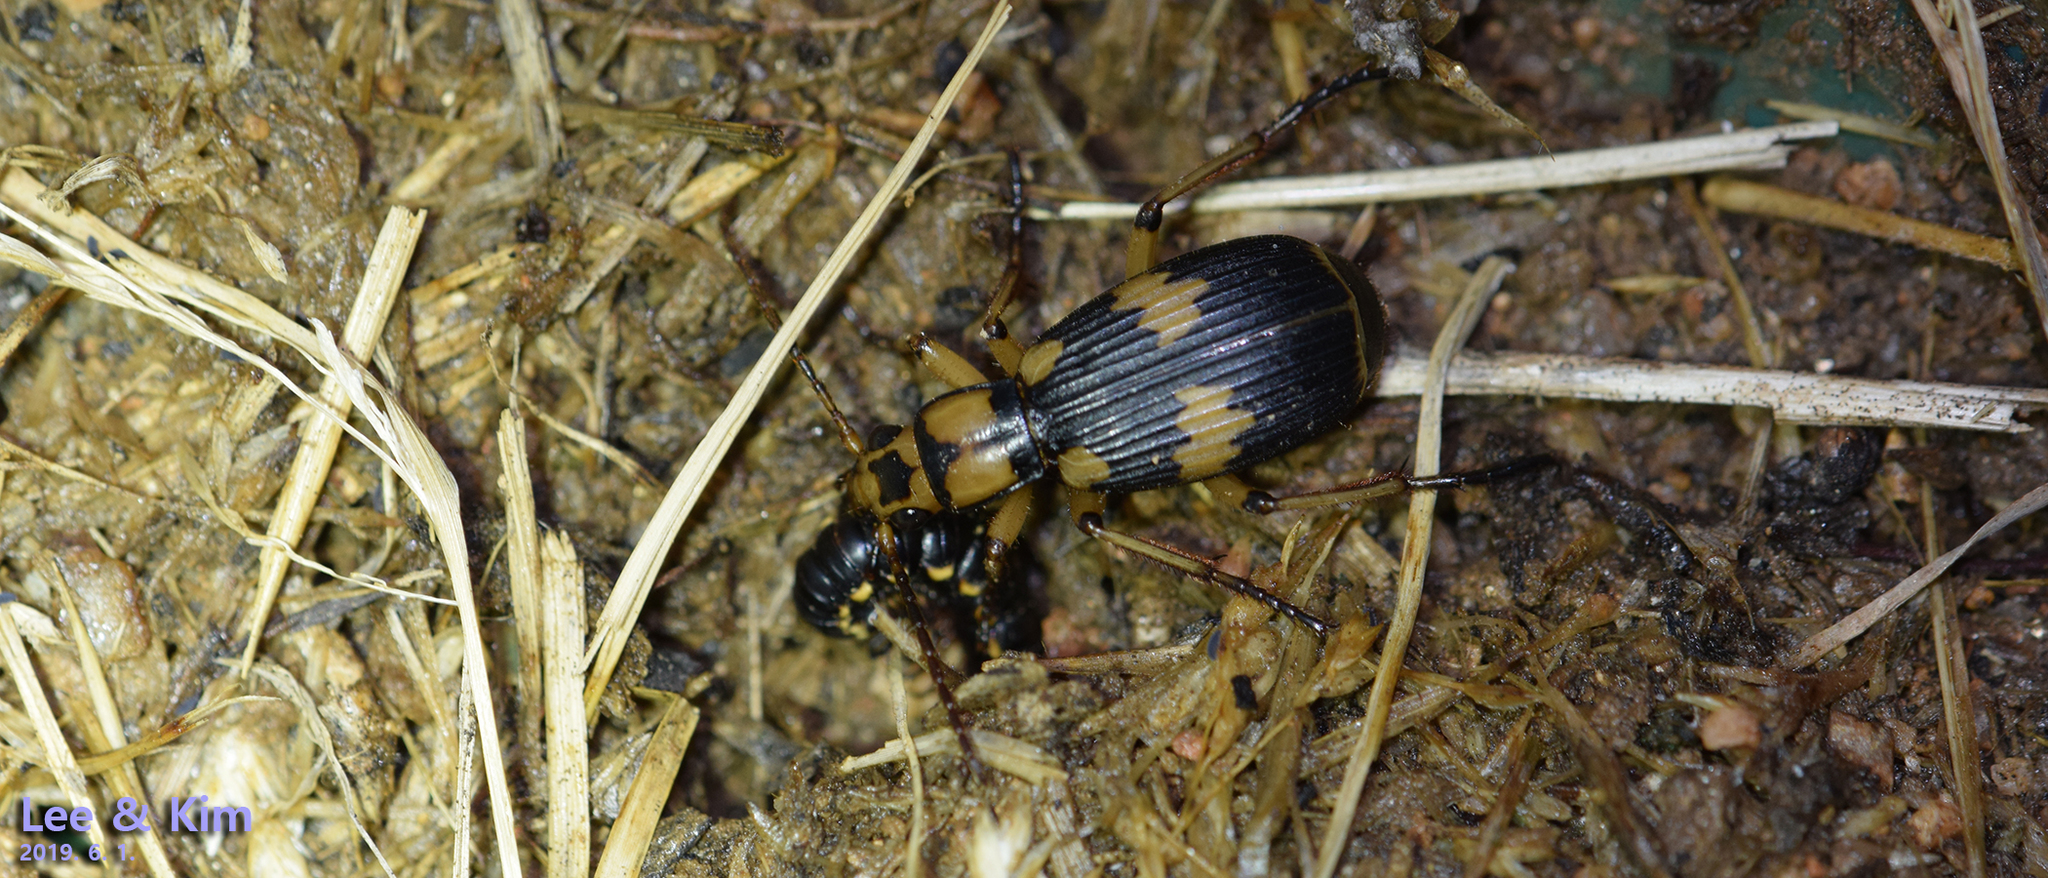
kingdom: Animalia
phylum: Arthropoda
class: Insecta
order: Coleoptera
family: Carabidae
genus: Pheropsophus
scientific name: Pheropsophus javanus
